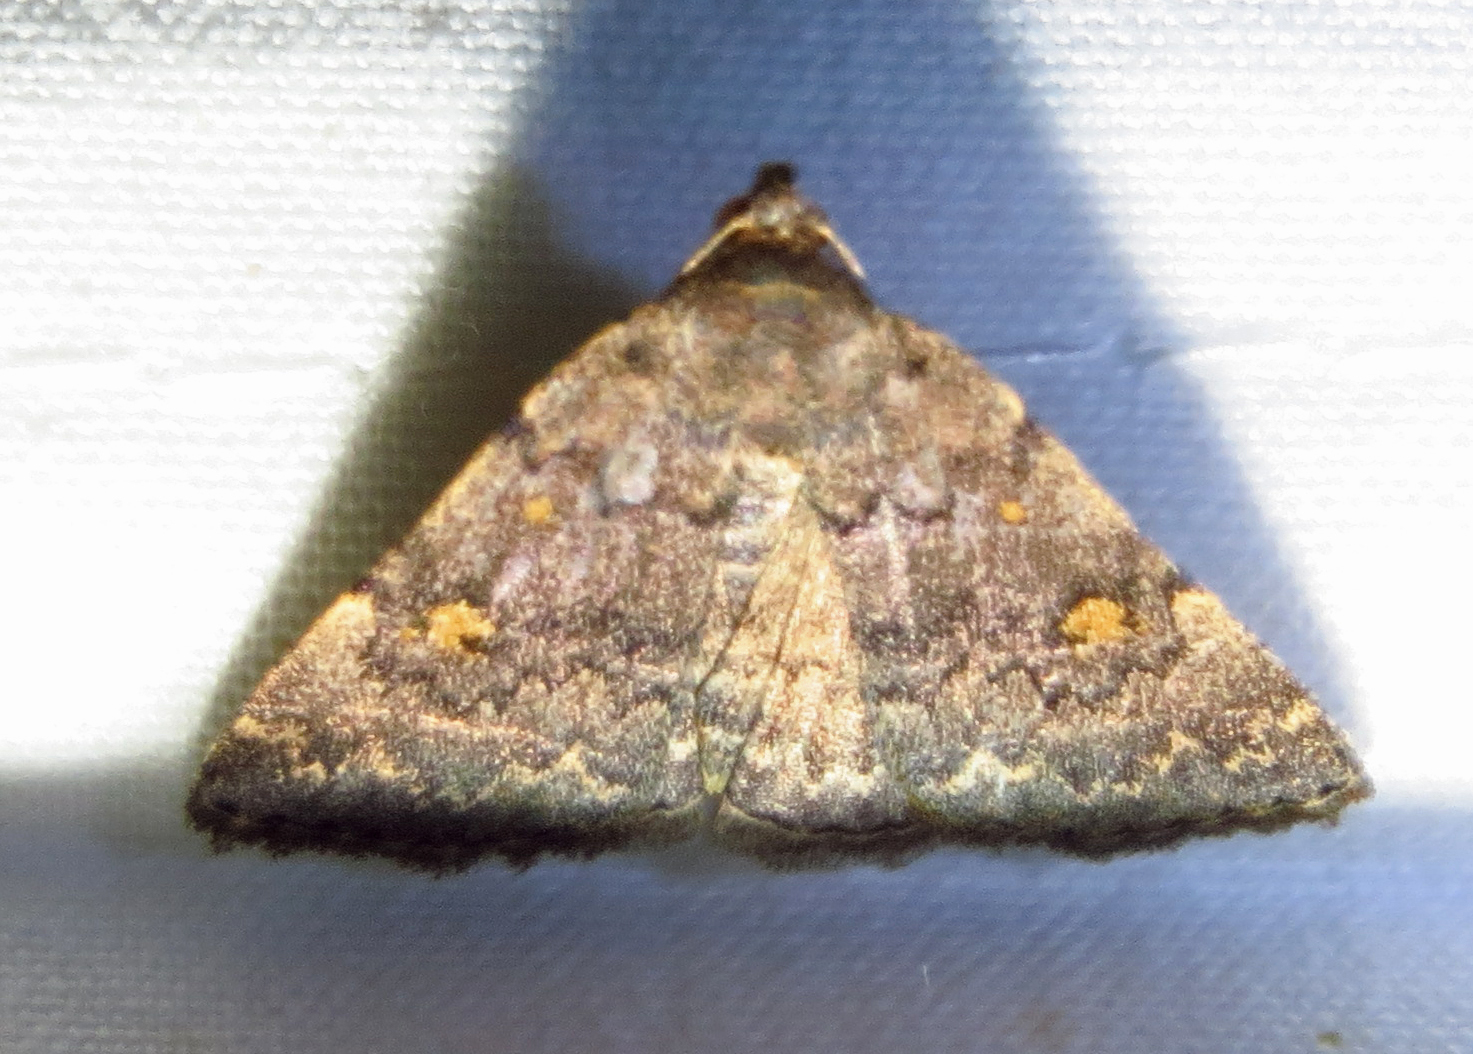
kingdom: Animalia
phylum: Arthropoda
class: Insecta
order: Lepidoptera
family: Erebidae
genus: Idia
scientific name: Idia aemula
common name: Common idia moth
